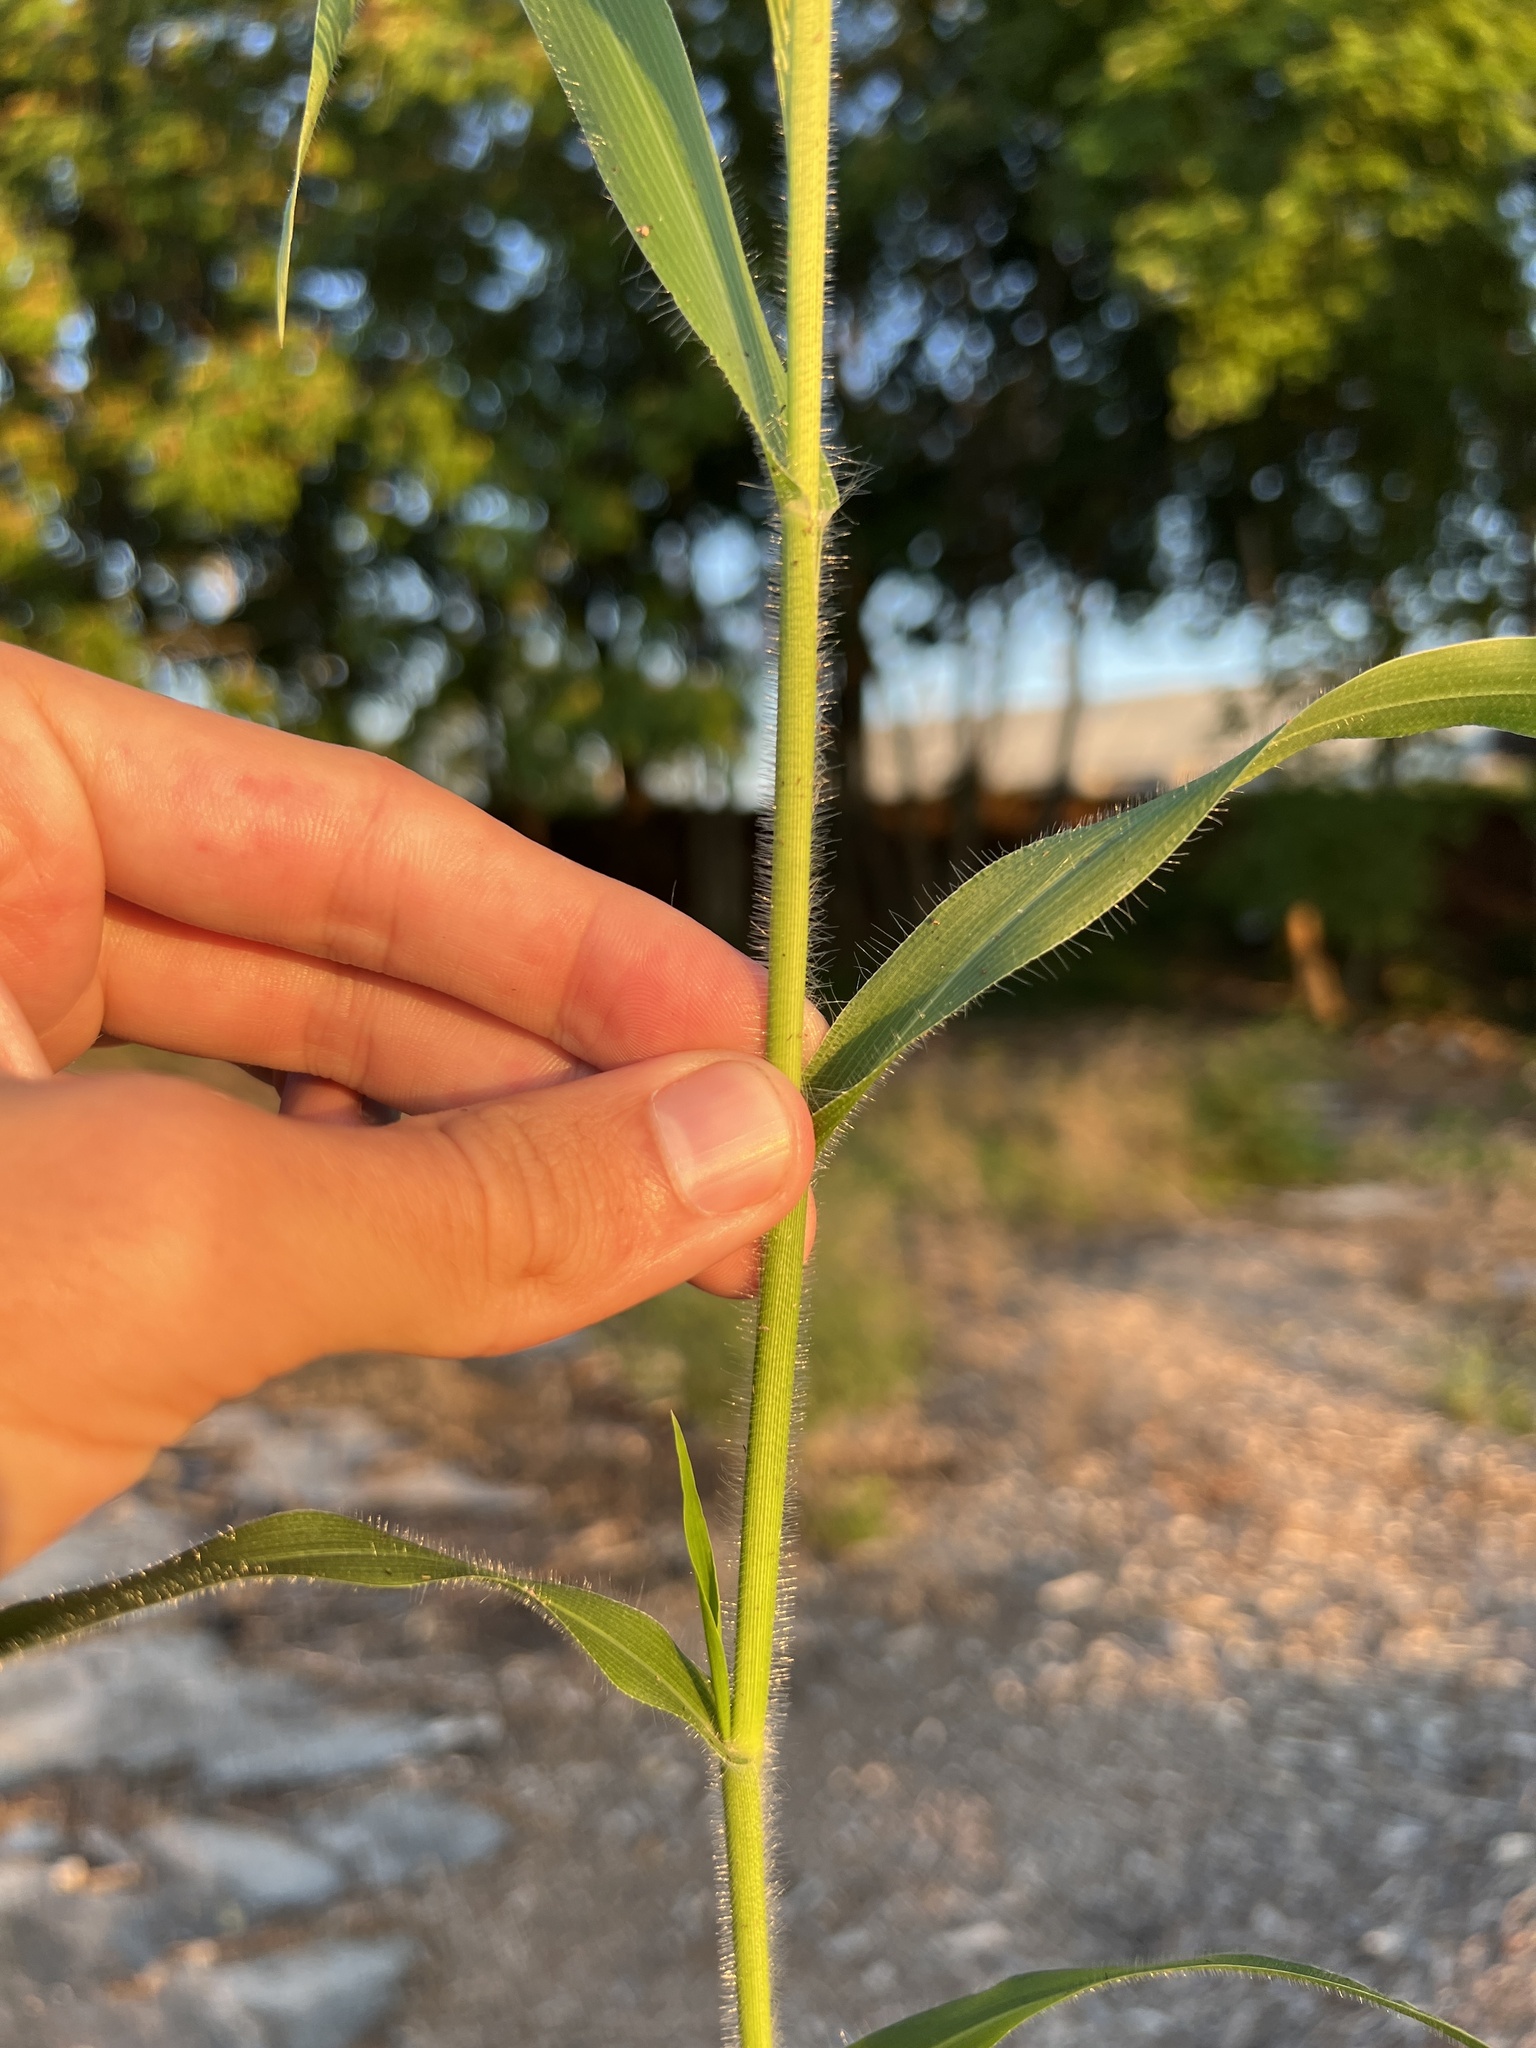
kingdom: Plantae
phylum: Tracheophyta
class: Liliopsida
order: Poales
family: Poaceae
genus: Panicum
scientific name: Panicum capillare
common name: Witch-grass
